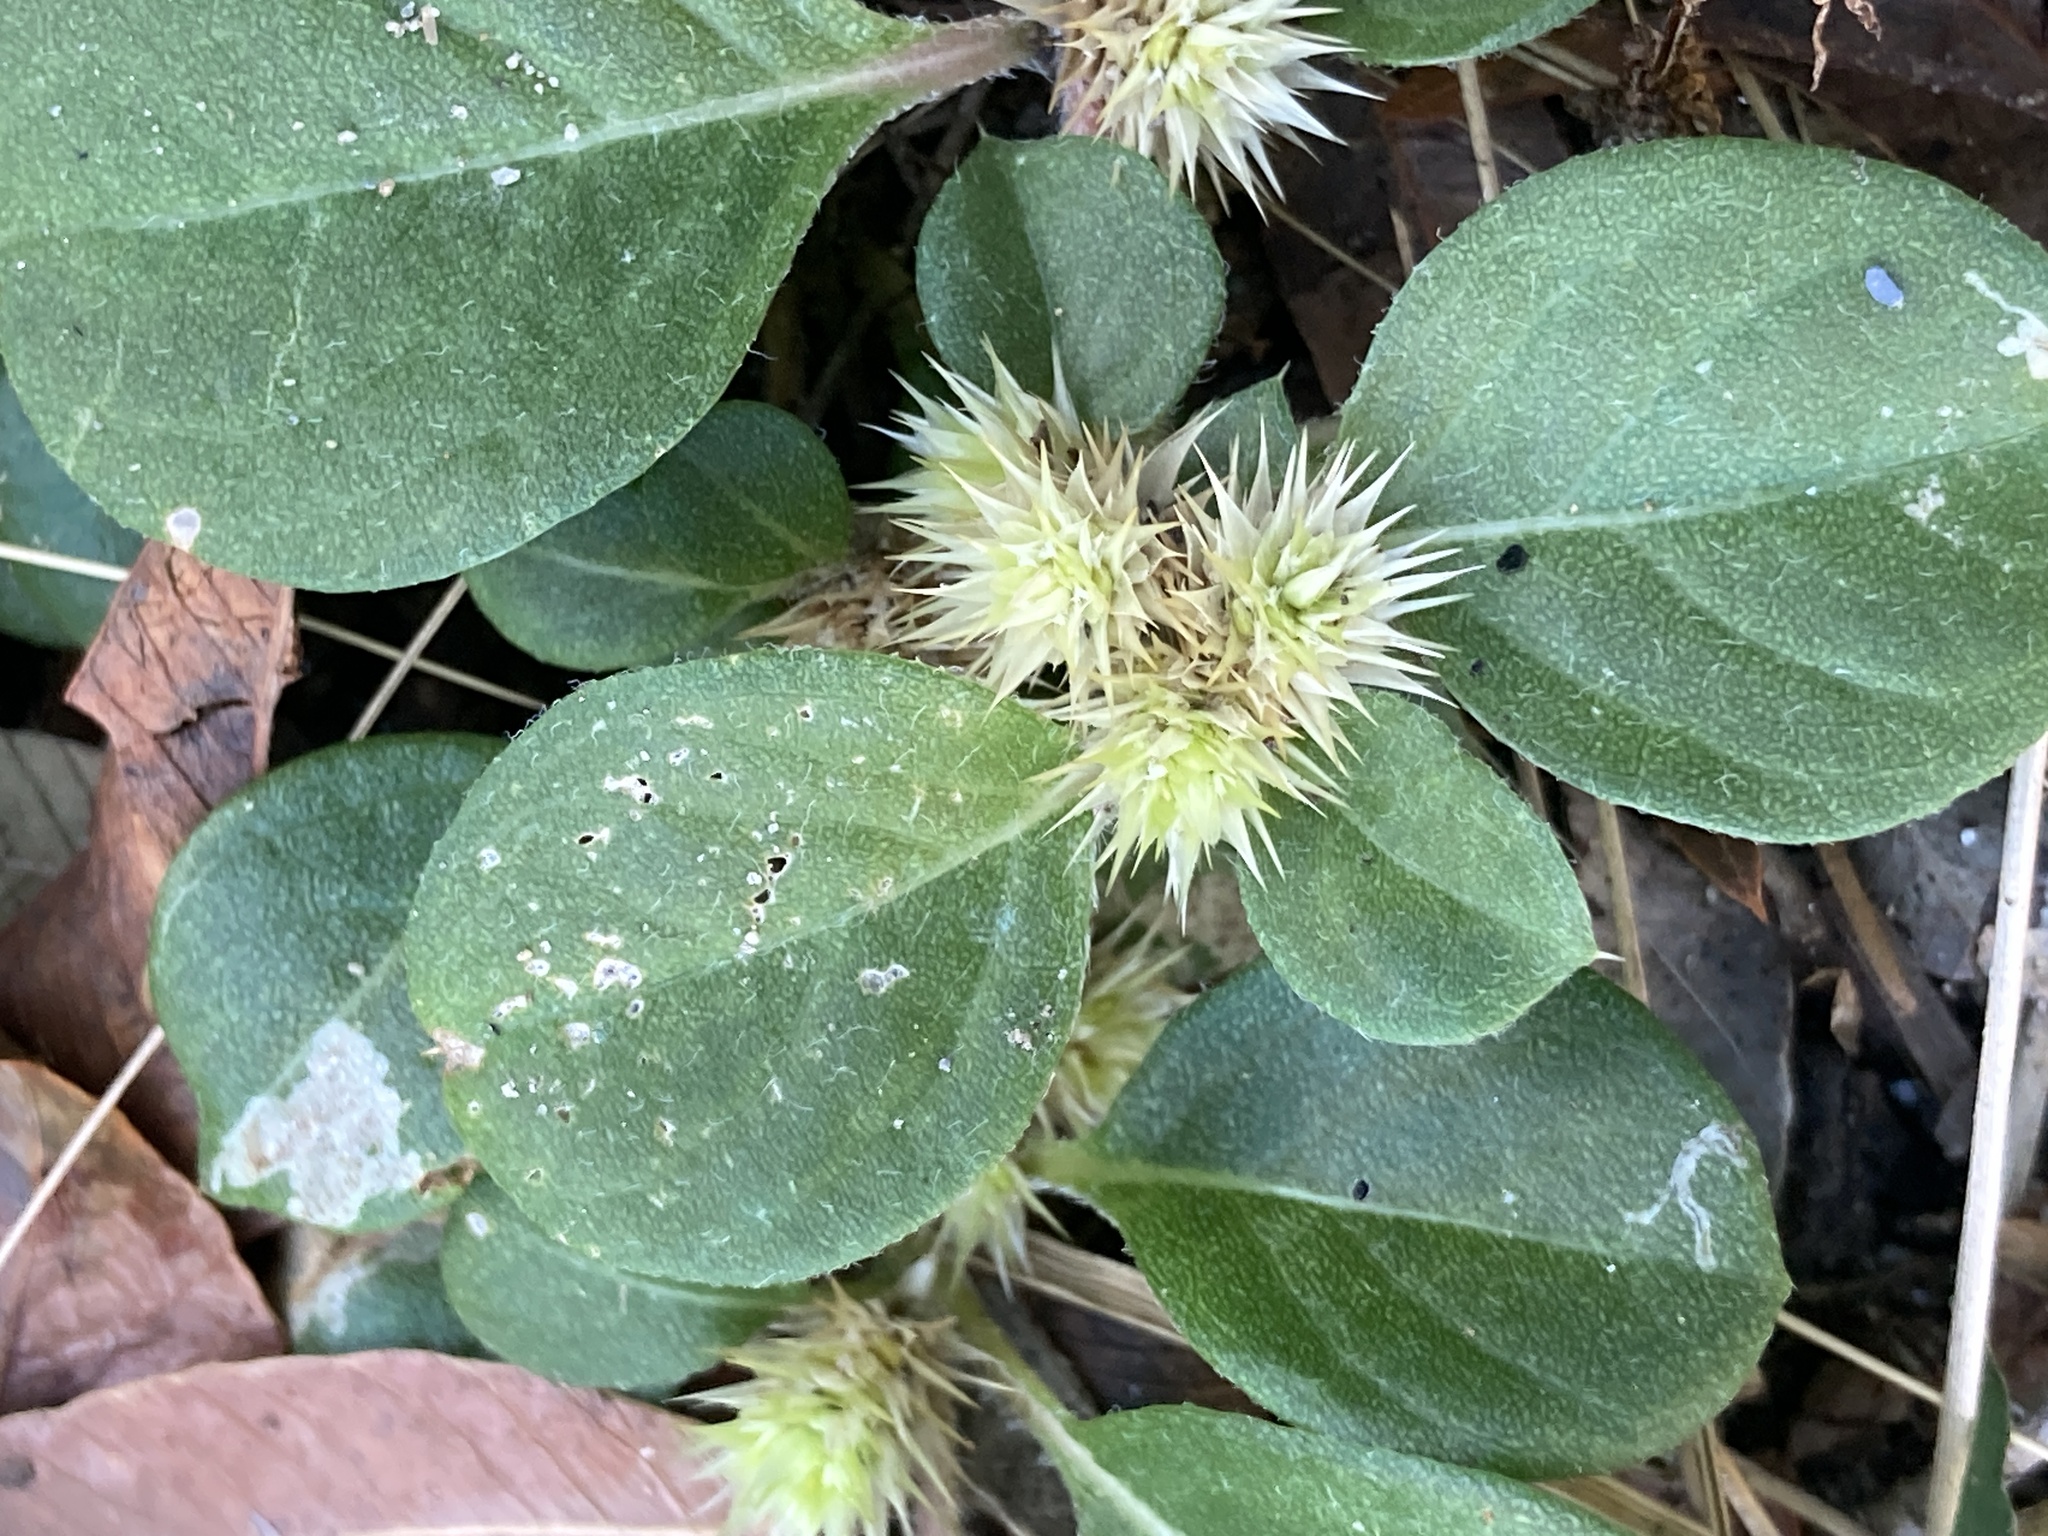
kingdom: Plantae
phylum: Tracheophyta
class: Magnoliopsida
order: Caryophyllales
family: Amaranthaceae
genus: Alternanthera
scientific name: Alternanthera pungens
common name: Khakiweed
